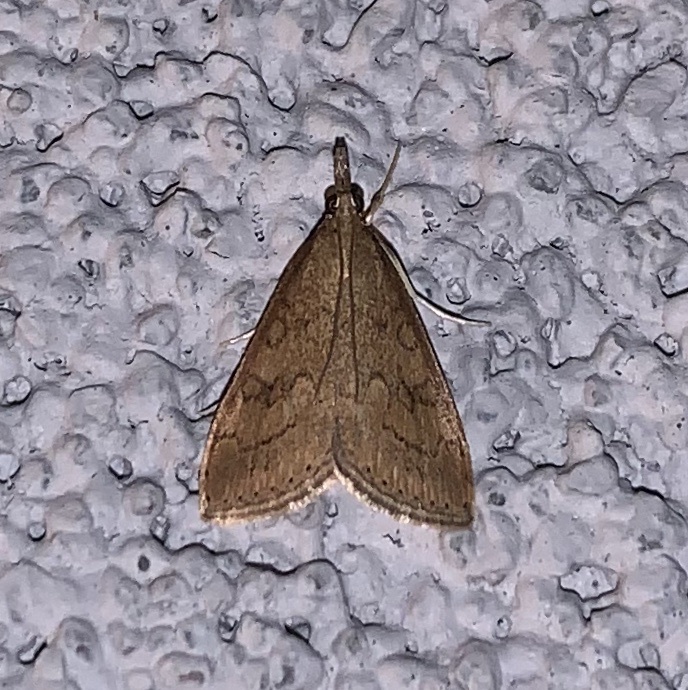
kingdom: Animalia
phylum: Arthropoda
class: Insecta
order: Lepidoptera
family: Crambidae
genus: Udea
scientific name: Udea rubigalis
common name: Celery leaftier moth
